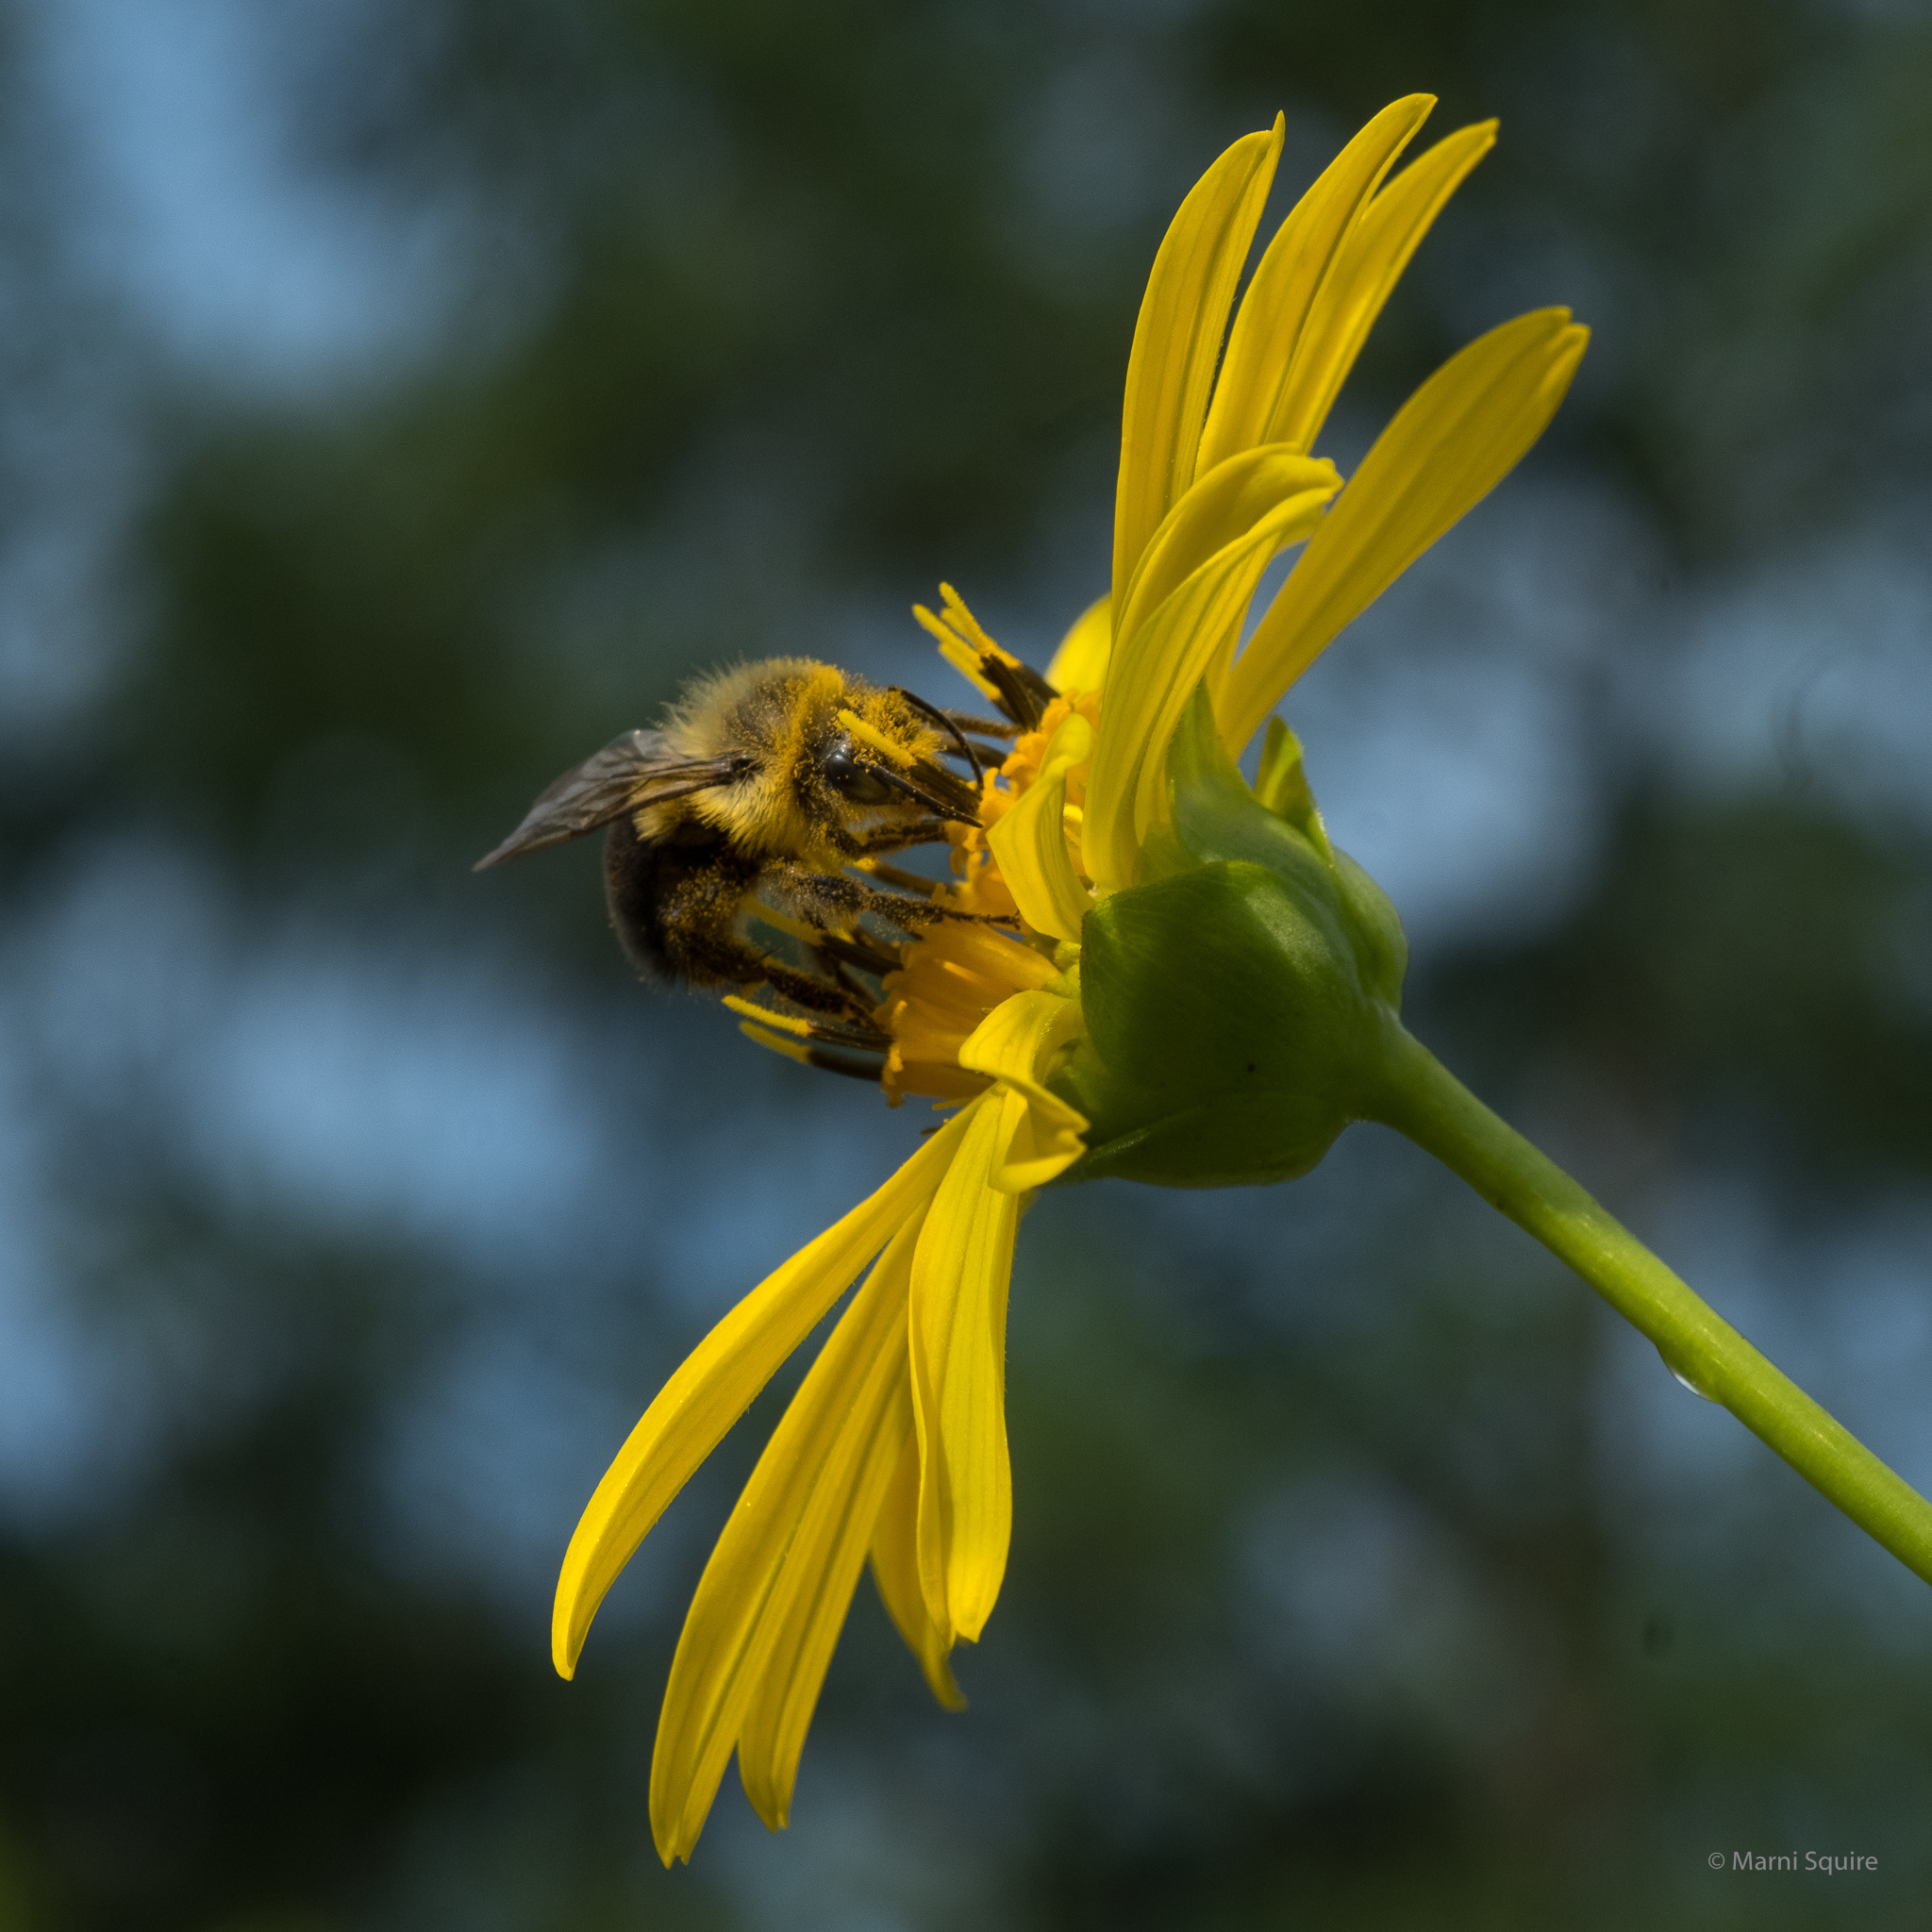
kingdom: Animalia
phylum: Arthropoda
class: Insecta
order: Hymenoptera
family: Apidae
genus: Bombus
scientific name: Bombus impatiens
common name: Common eastern bumble bee
